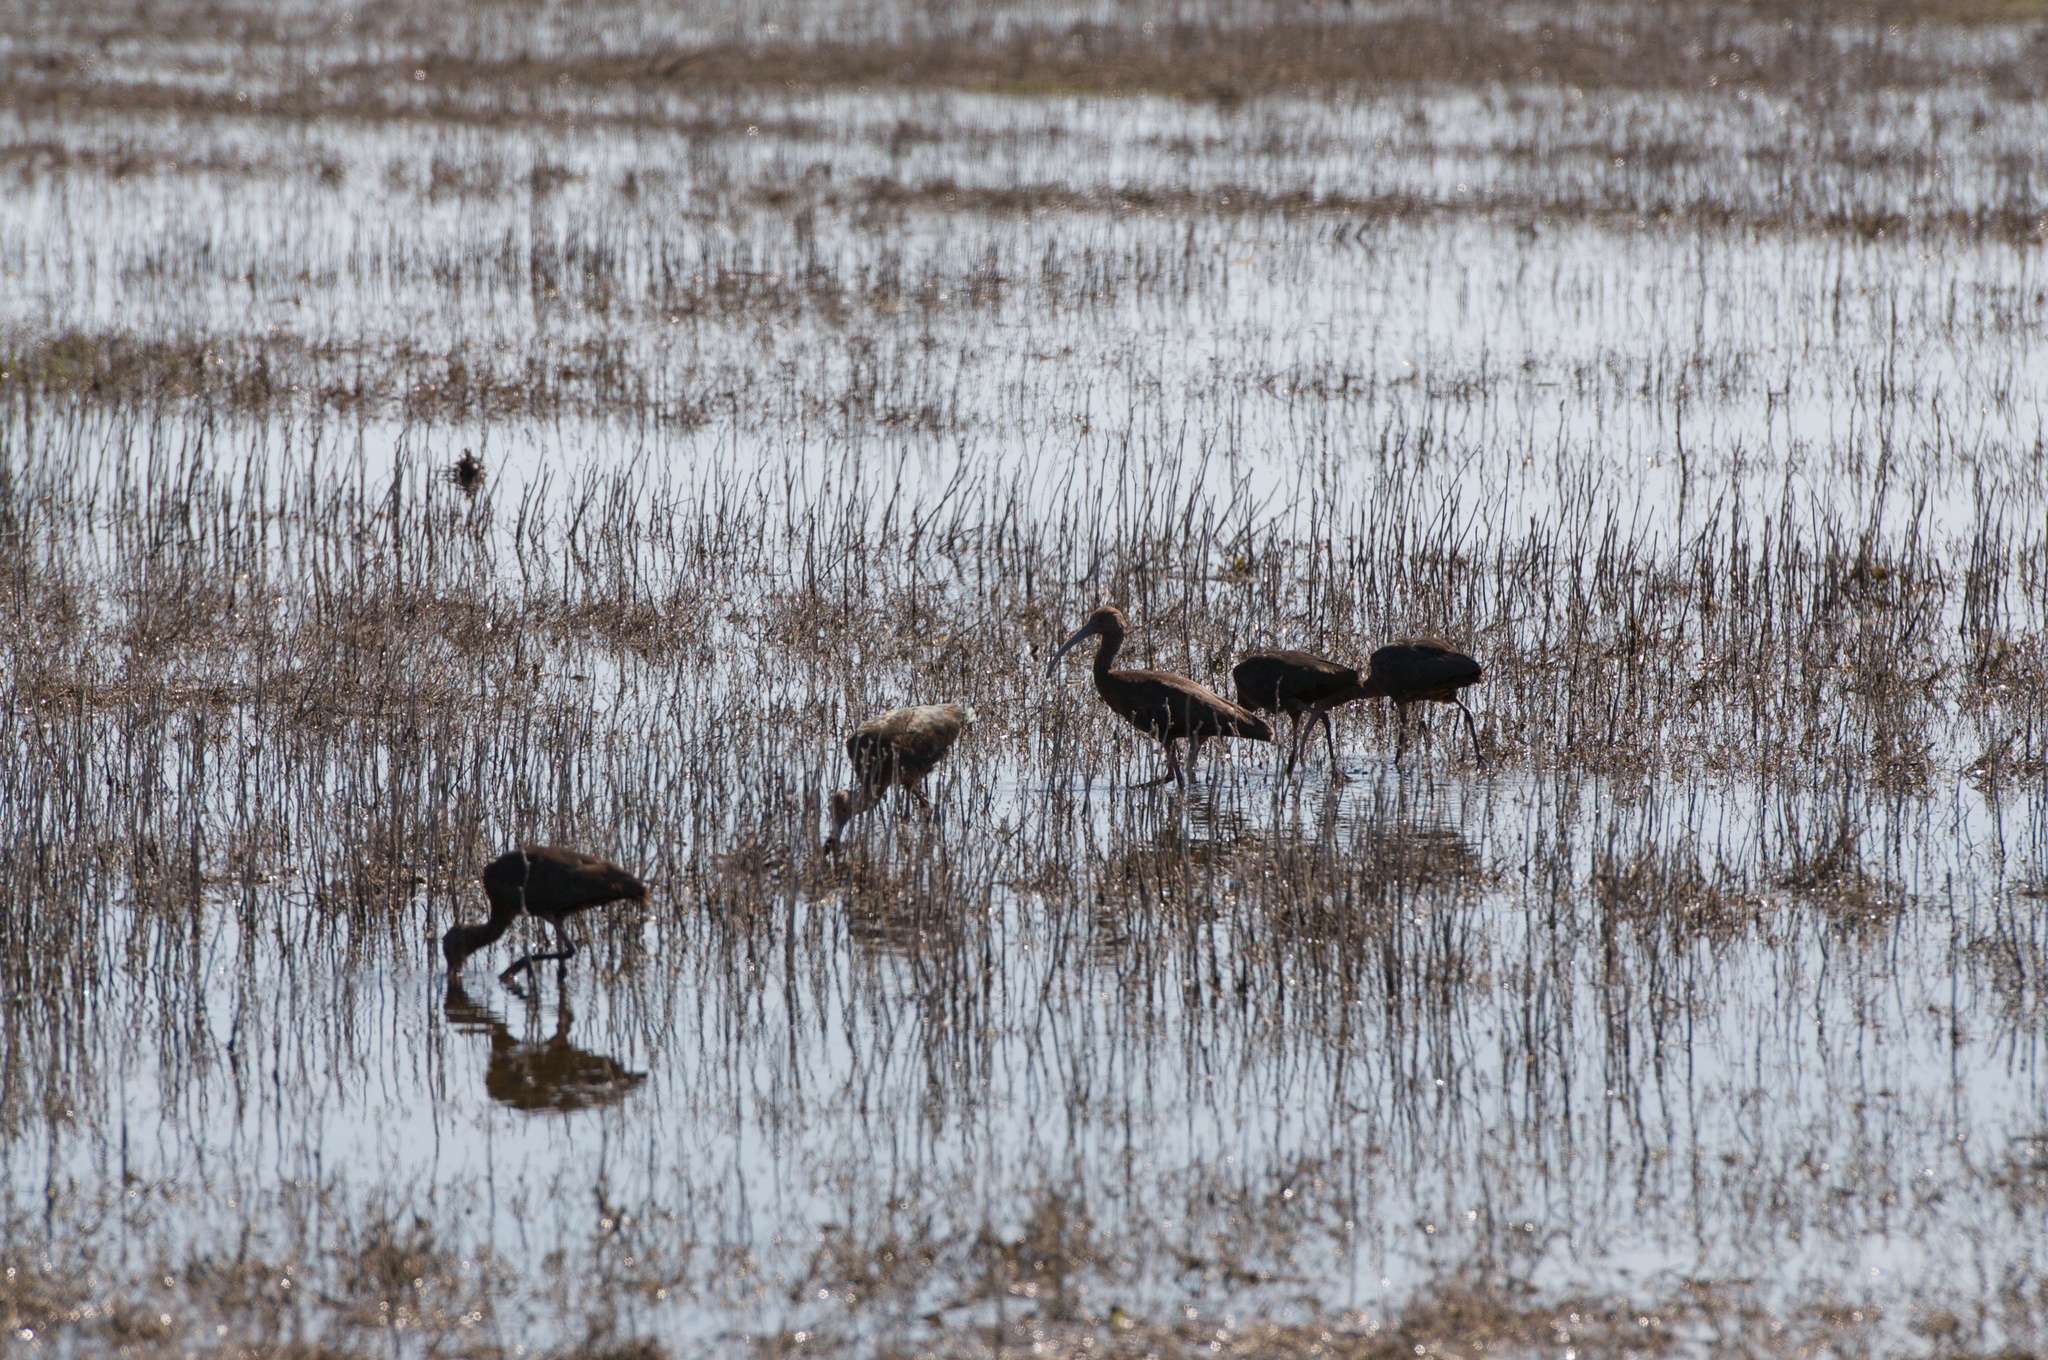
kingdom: Animalia
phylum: Chordata
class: Aves
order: Pelecaniformes
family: Threskiornithidae
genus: Plegadis
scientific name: Plegadis chihi
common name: White-faced ibis
